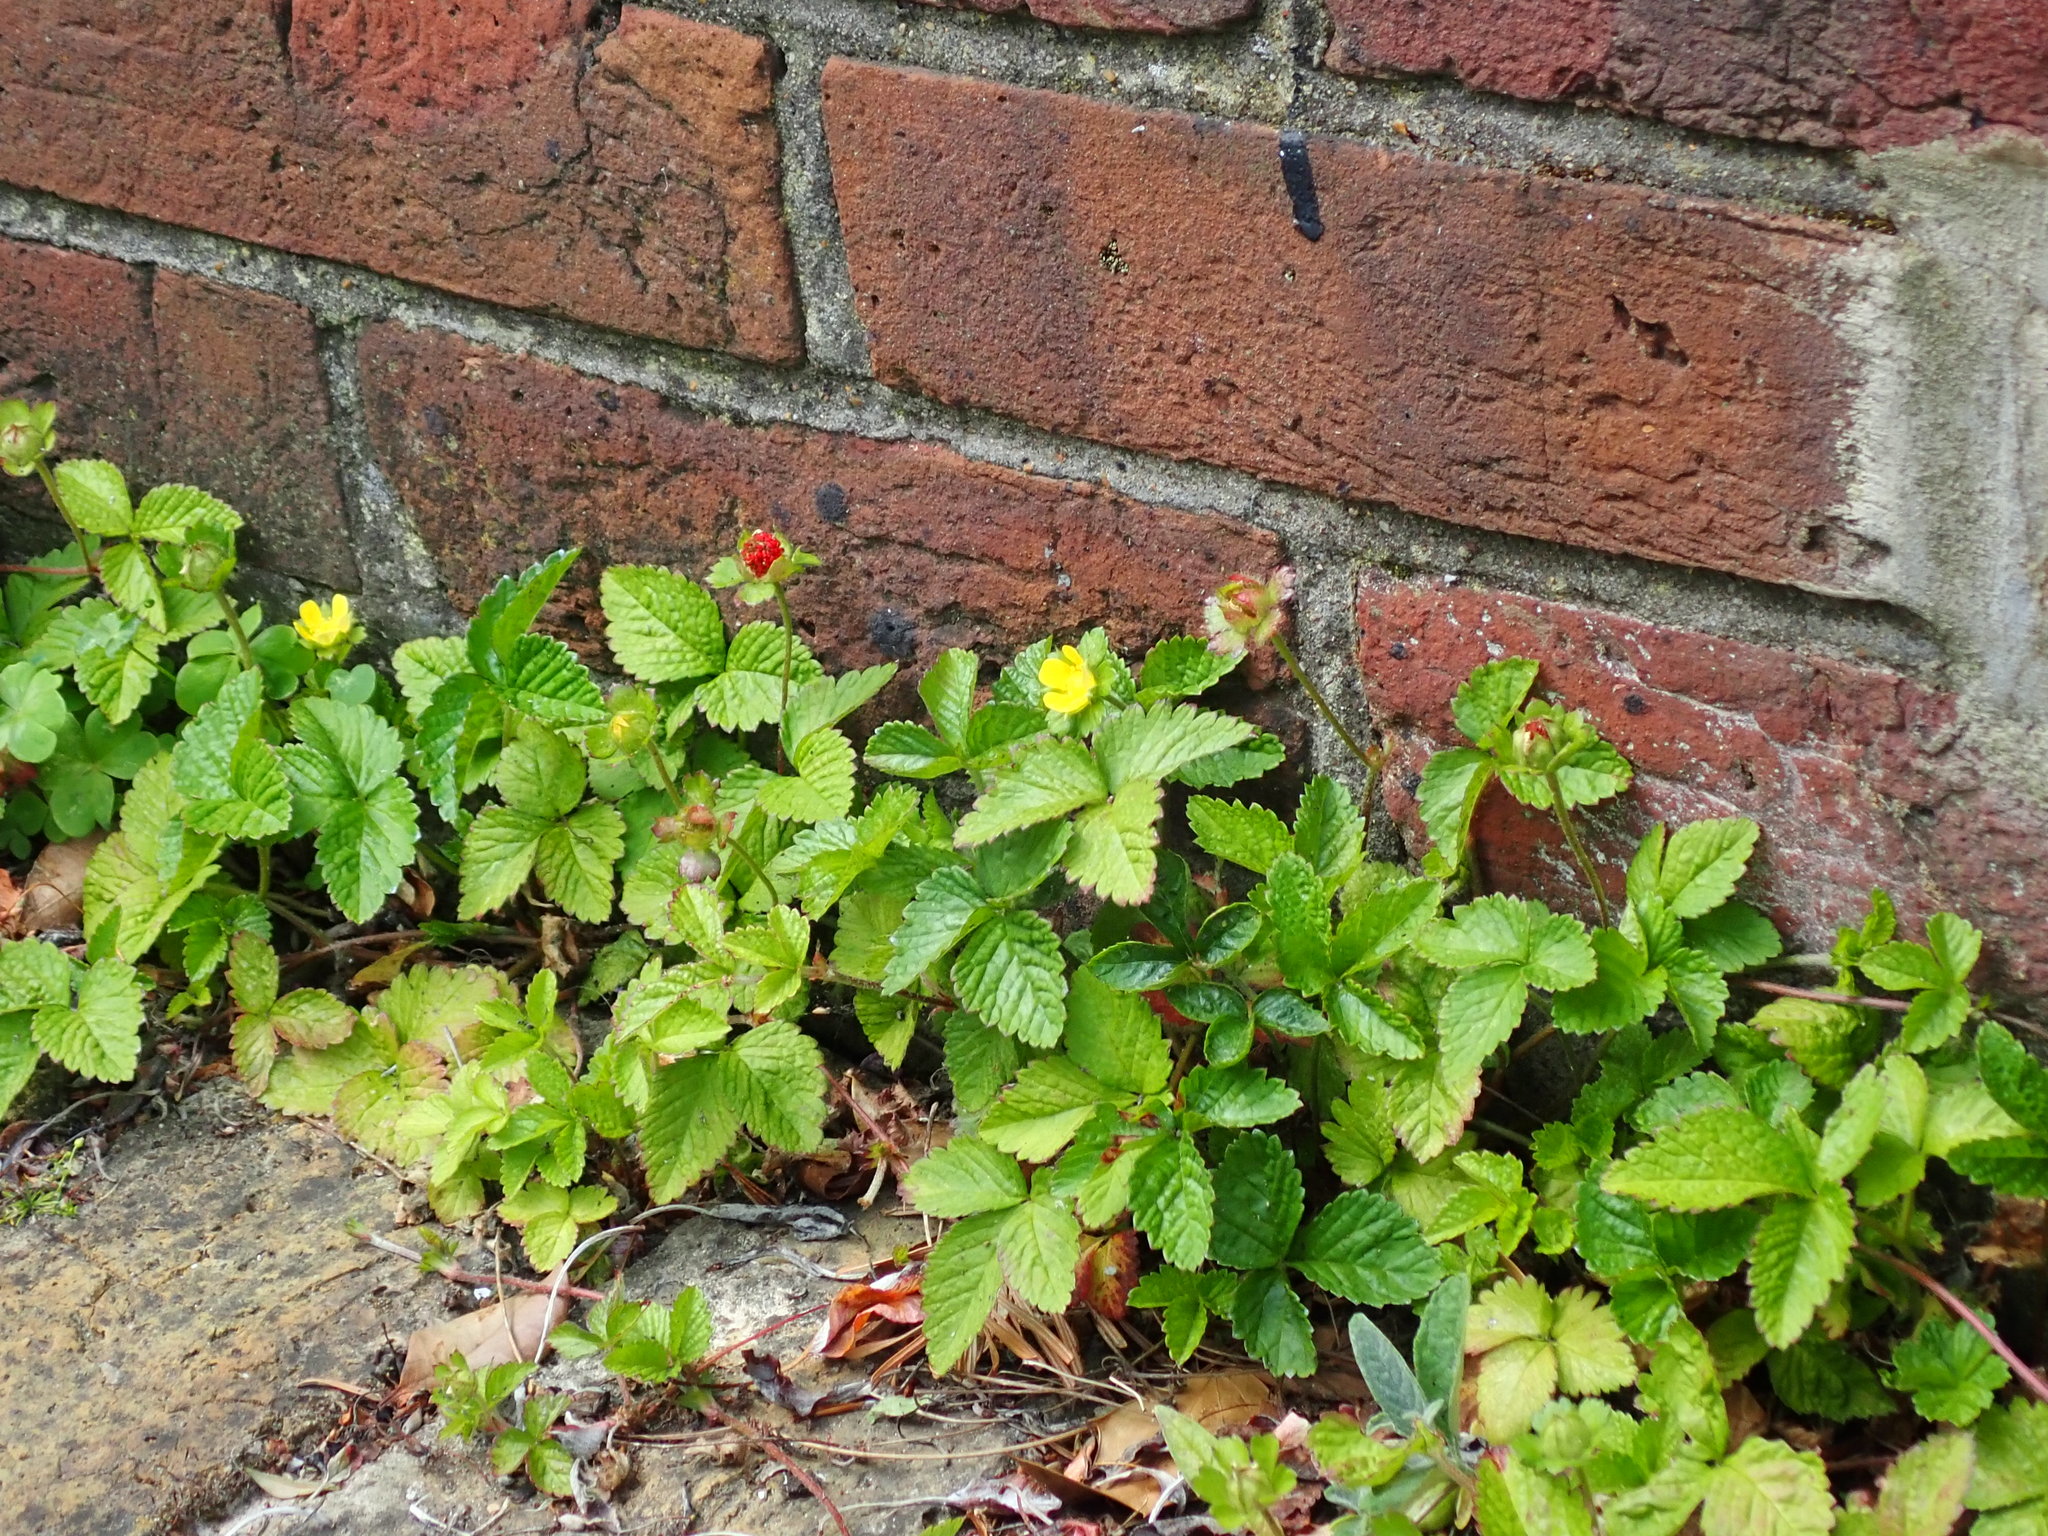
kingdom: Plantae
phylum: Tracheophyta
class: Magnoliopsida
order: Rosales
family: Rosaceae
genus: Potentilla
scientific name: Potentilla indica
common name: Yellow-flowered strawberry
